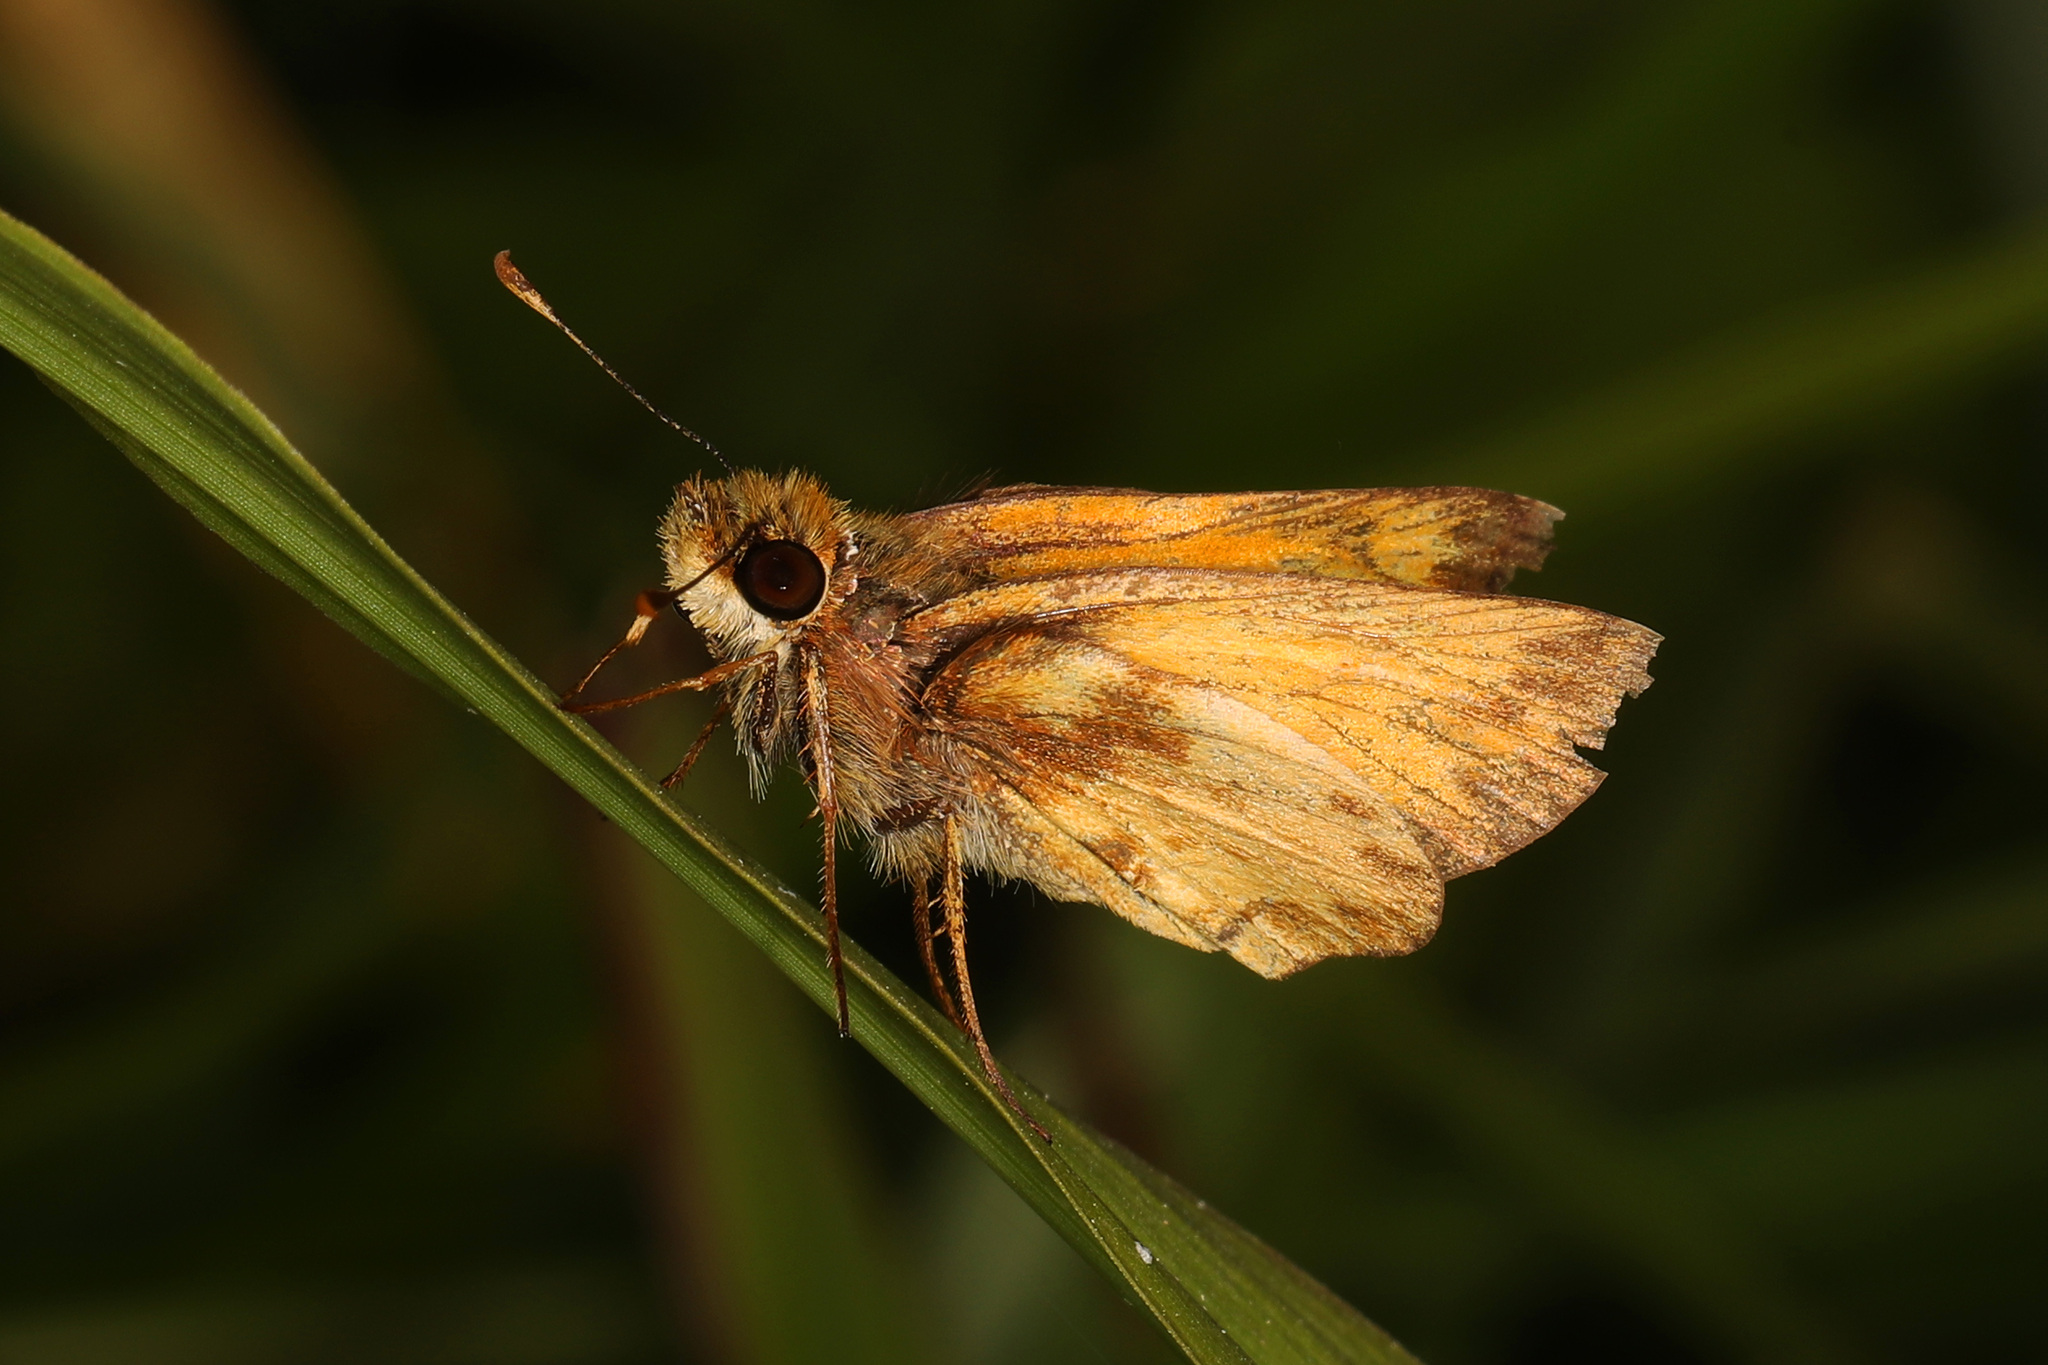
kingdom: Animalia
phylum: Arthropoda
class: Insecta
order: Lepidoptera
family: Hesperiidae
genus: Lon
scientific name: Lon zabulon
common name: Zabulon skipper
